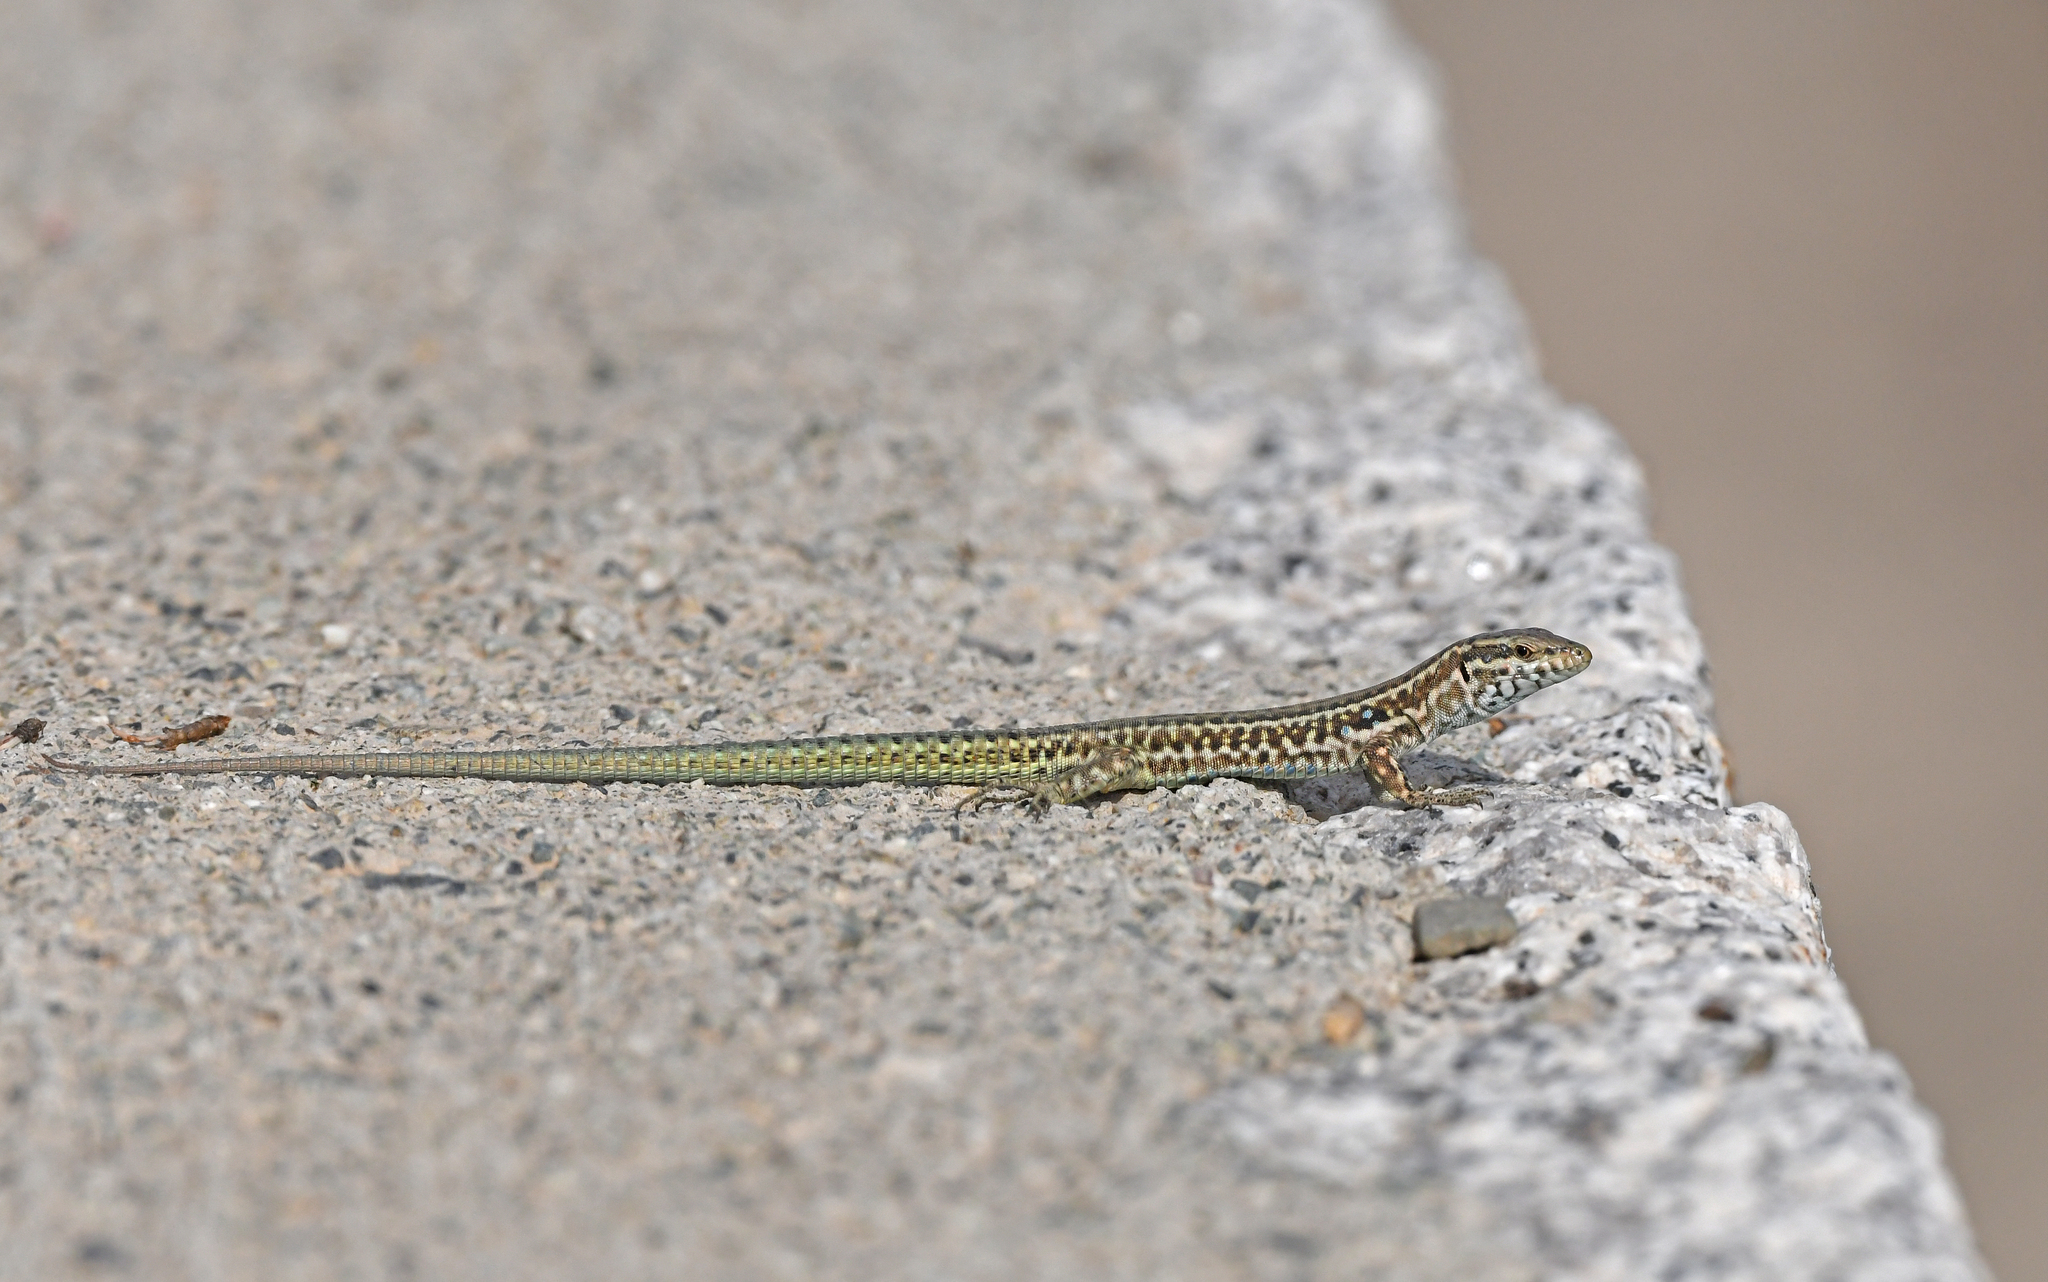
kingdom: Animalia
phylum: Chordata
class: Squamata
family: Lacertidae
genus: Podarcis
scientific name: Podarcis tiliguerta
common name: Tyrrhenian wall lizard
